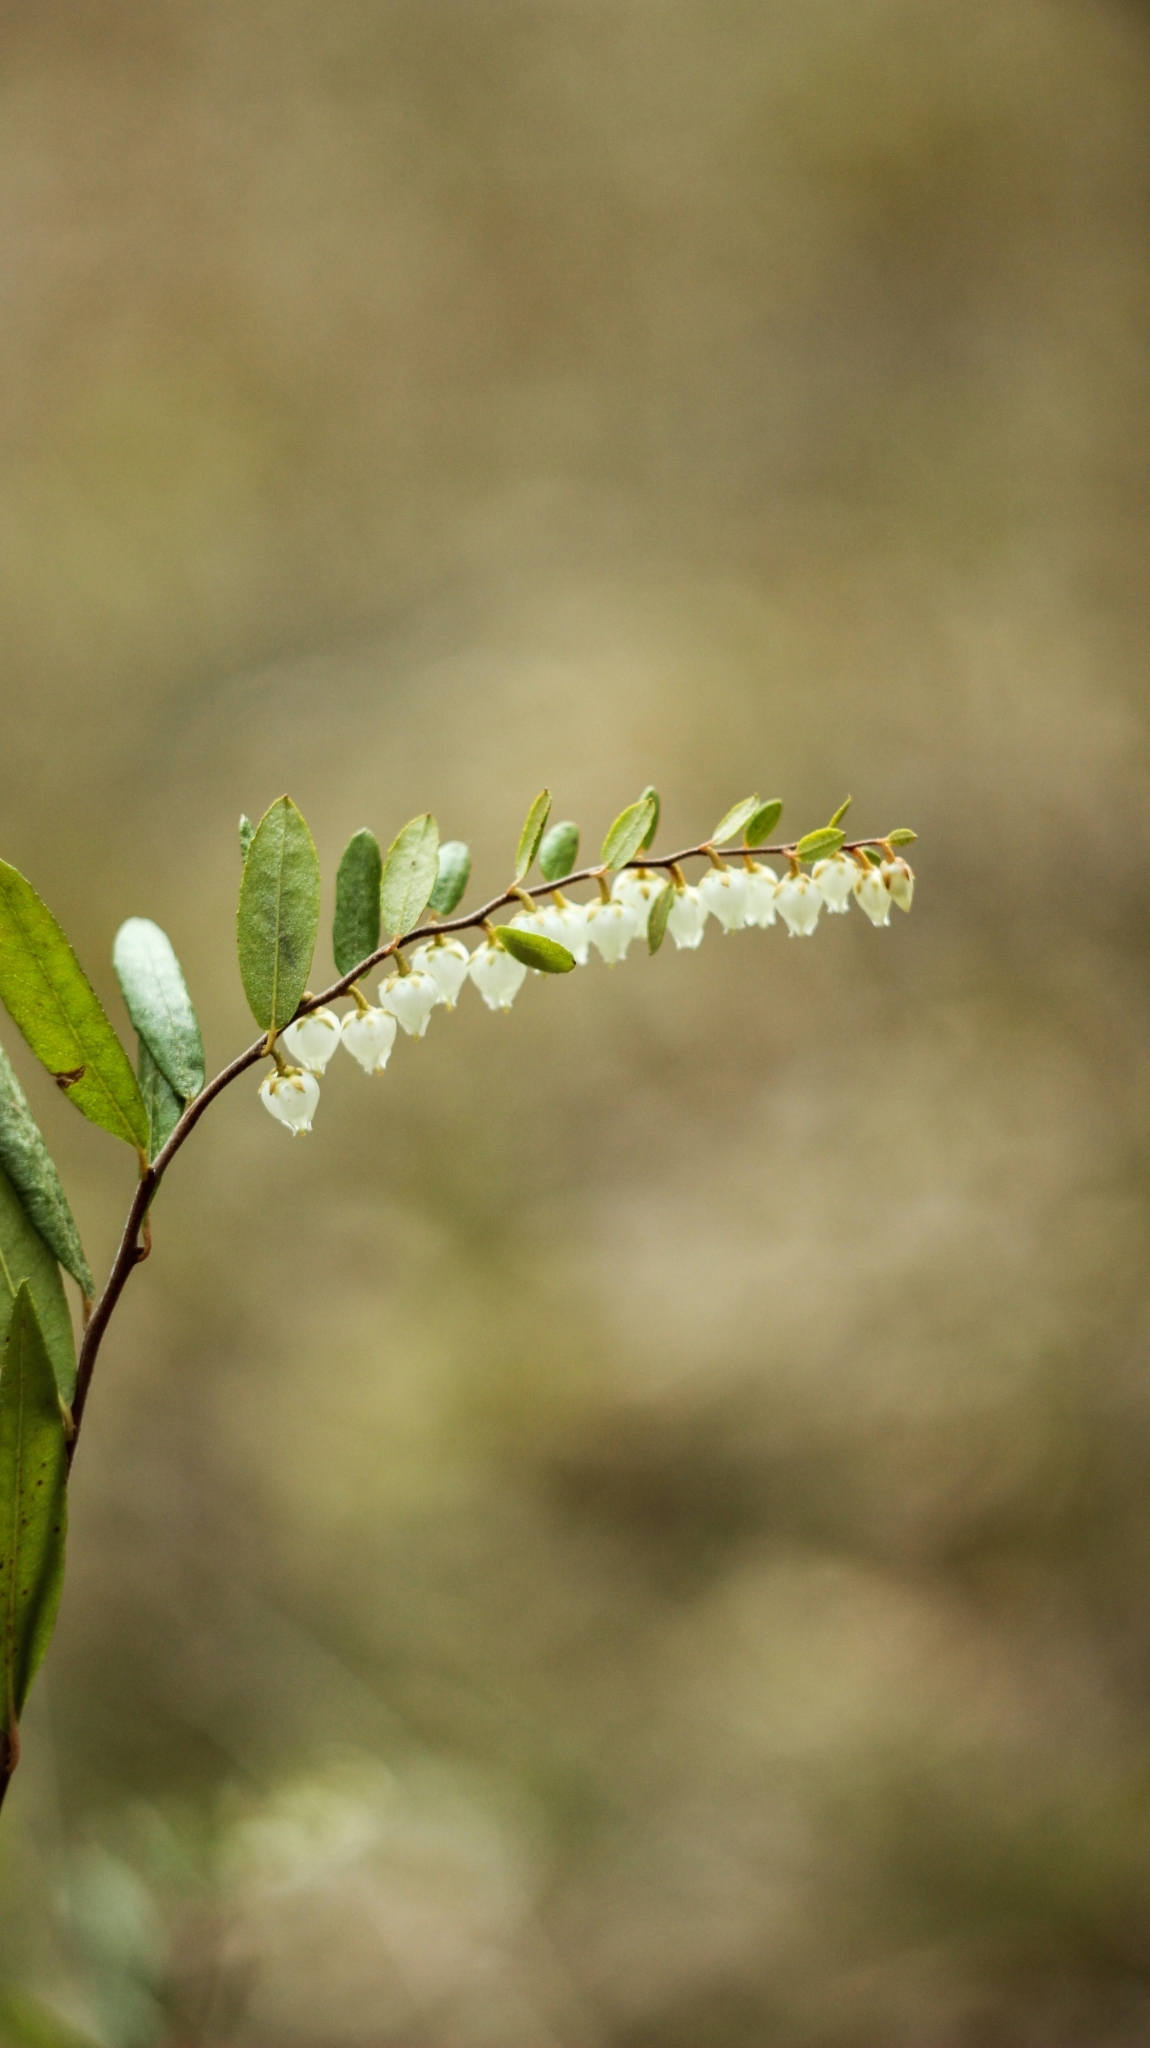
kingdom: Plantae
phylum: Tracheophyta
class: Magnoliopsida
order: Ericales
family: Ericaceae
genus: Chamaedaphne
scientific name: Chamaedaphne calyculata
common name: Leatherleaf
